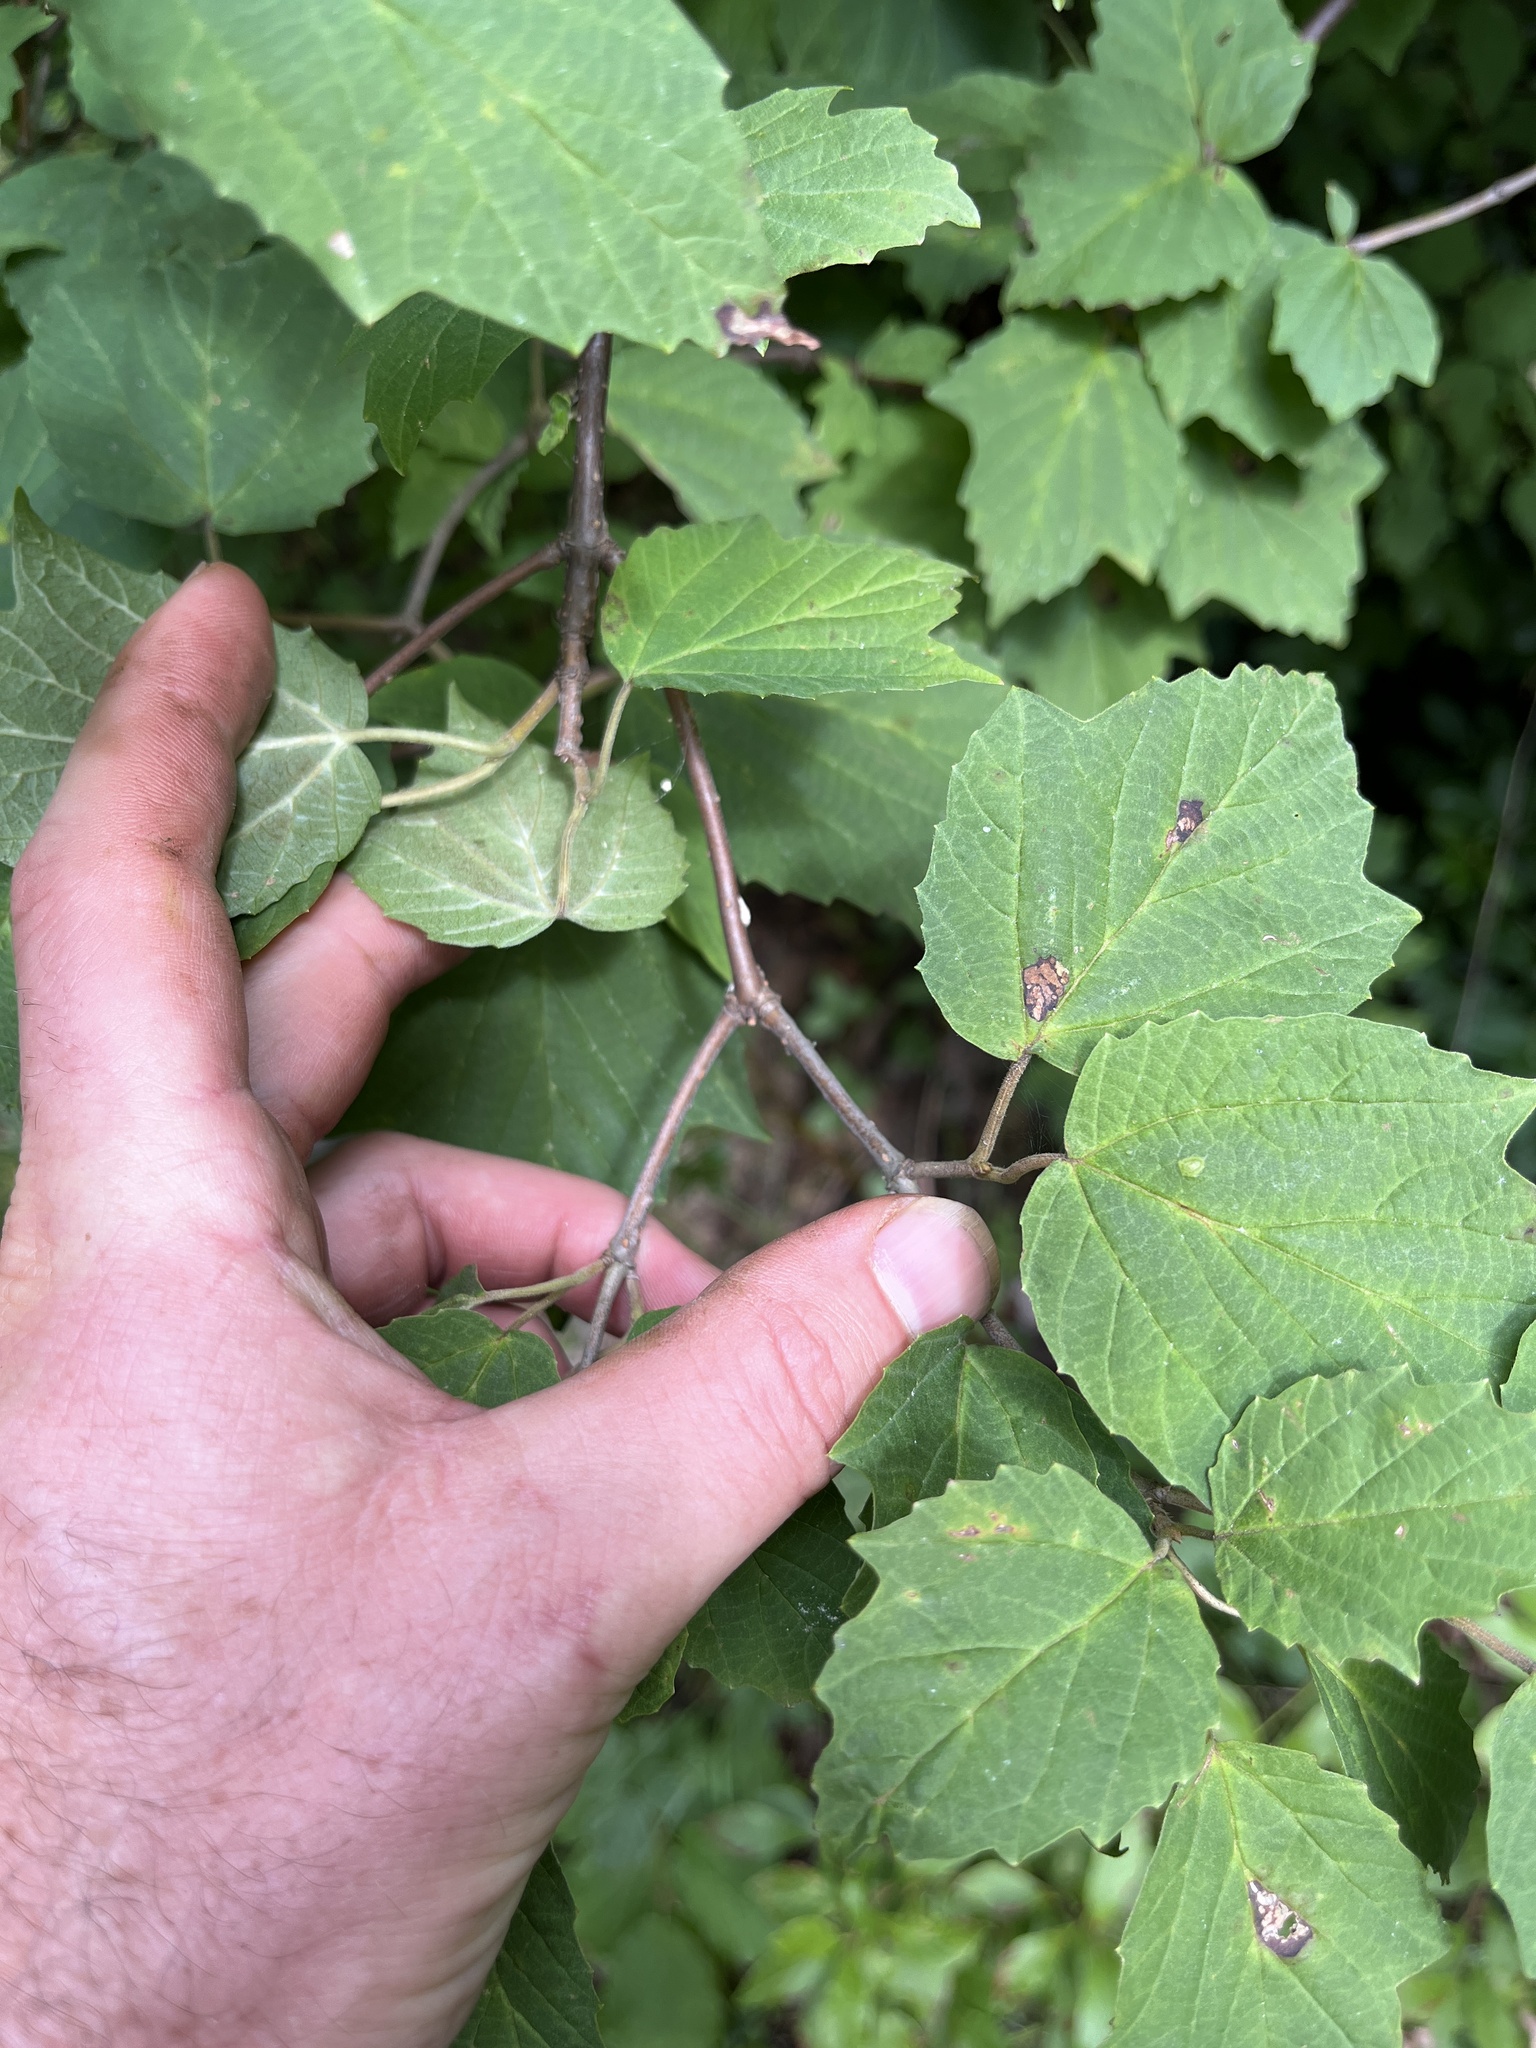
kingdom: Plantae
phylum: Tracheophyta
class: Magnoliopsida
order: Dipsacales
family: Viburnaceae
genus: Viburnum
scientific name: Viburnum acerifolium
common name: Dockmackie
